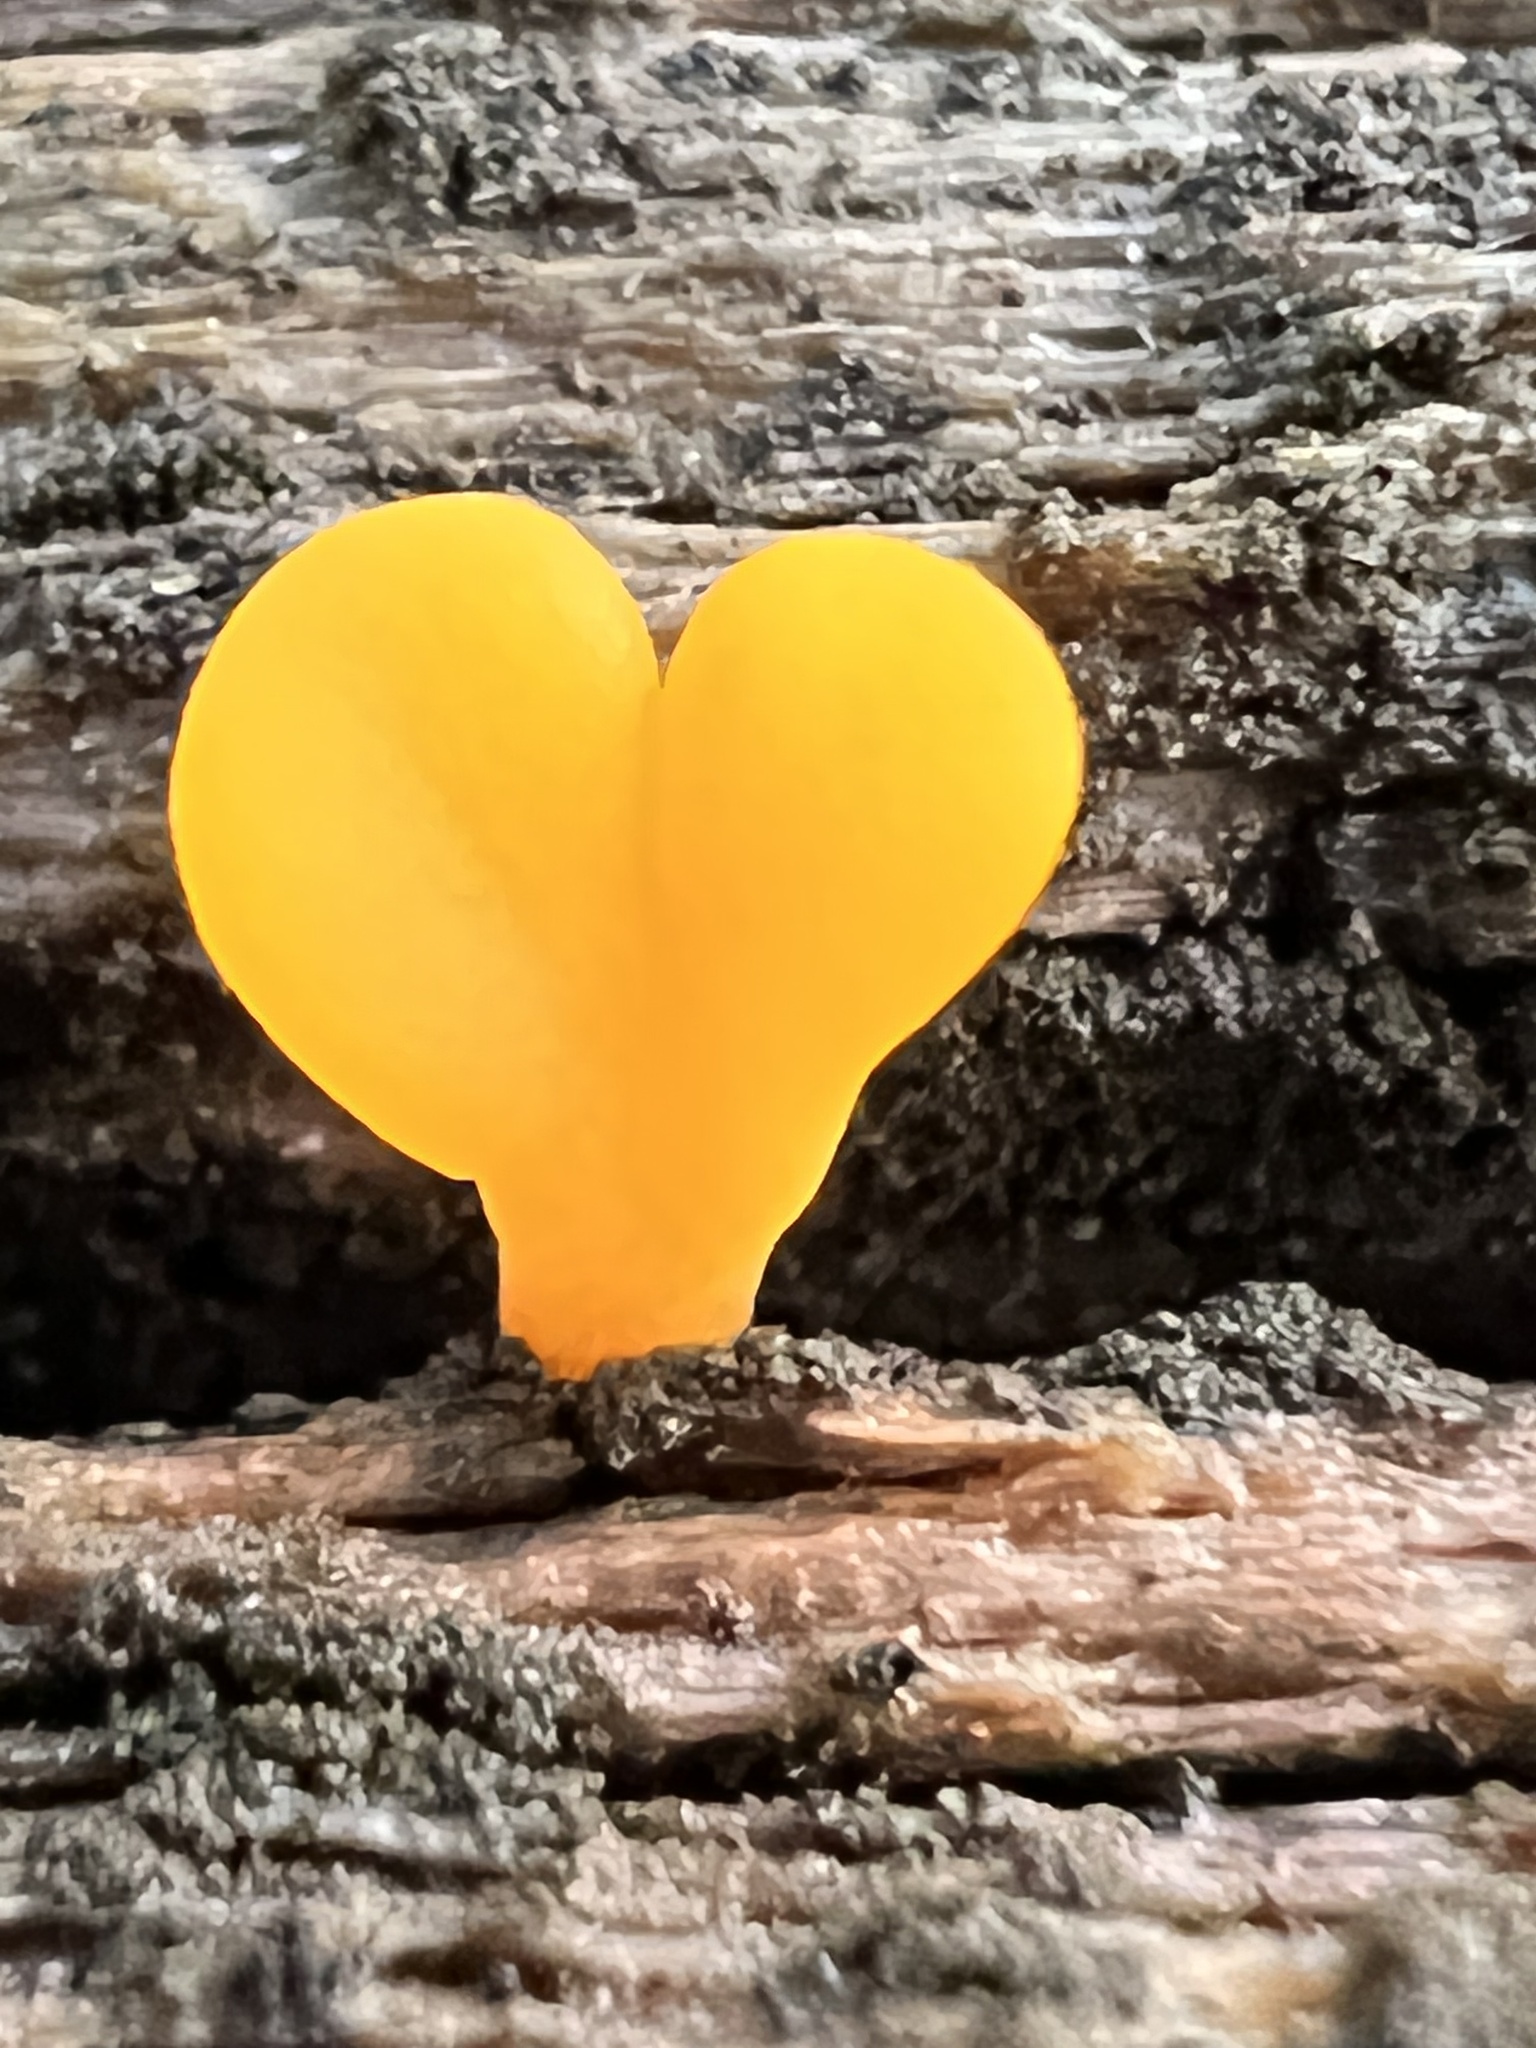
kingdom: Fungi
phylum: Basidiomycota
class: Dacrymycetes
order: Dacrymycetales
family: Dacrymycetaceae
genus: Dacrymyces
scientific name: Dacrymyces spathularius
